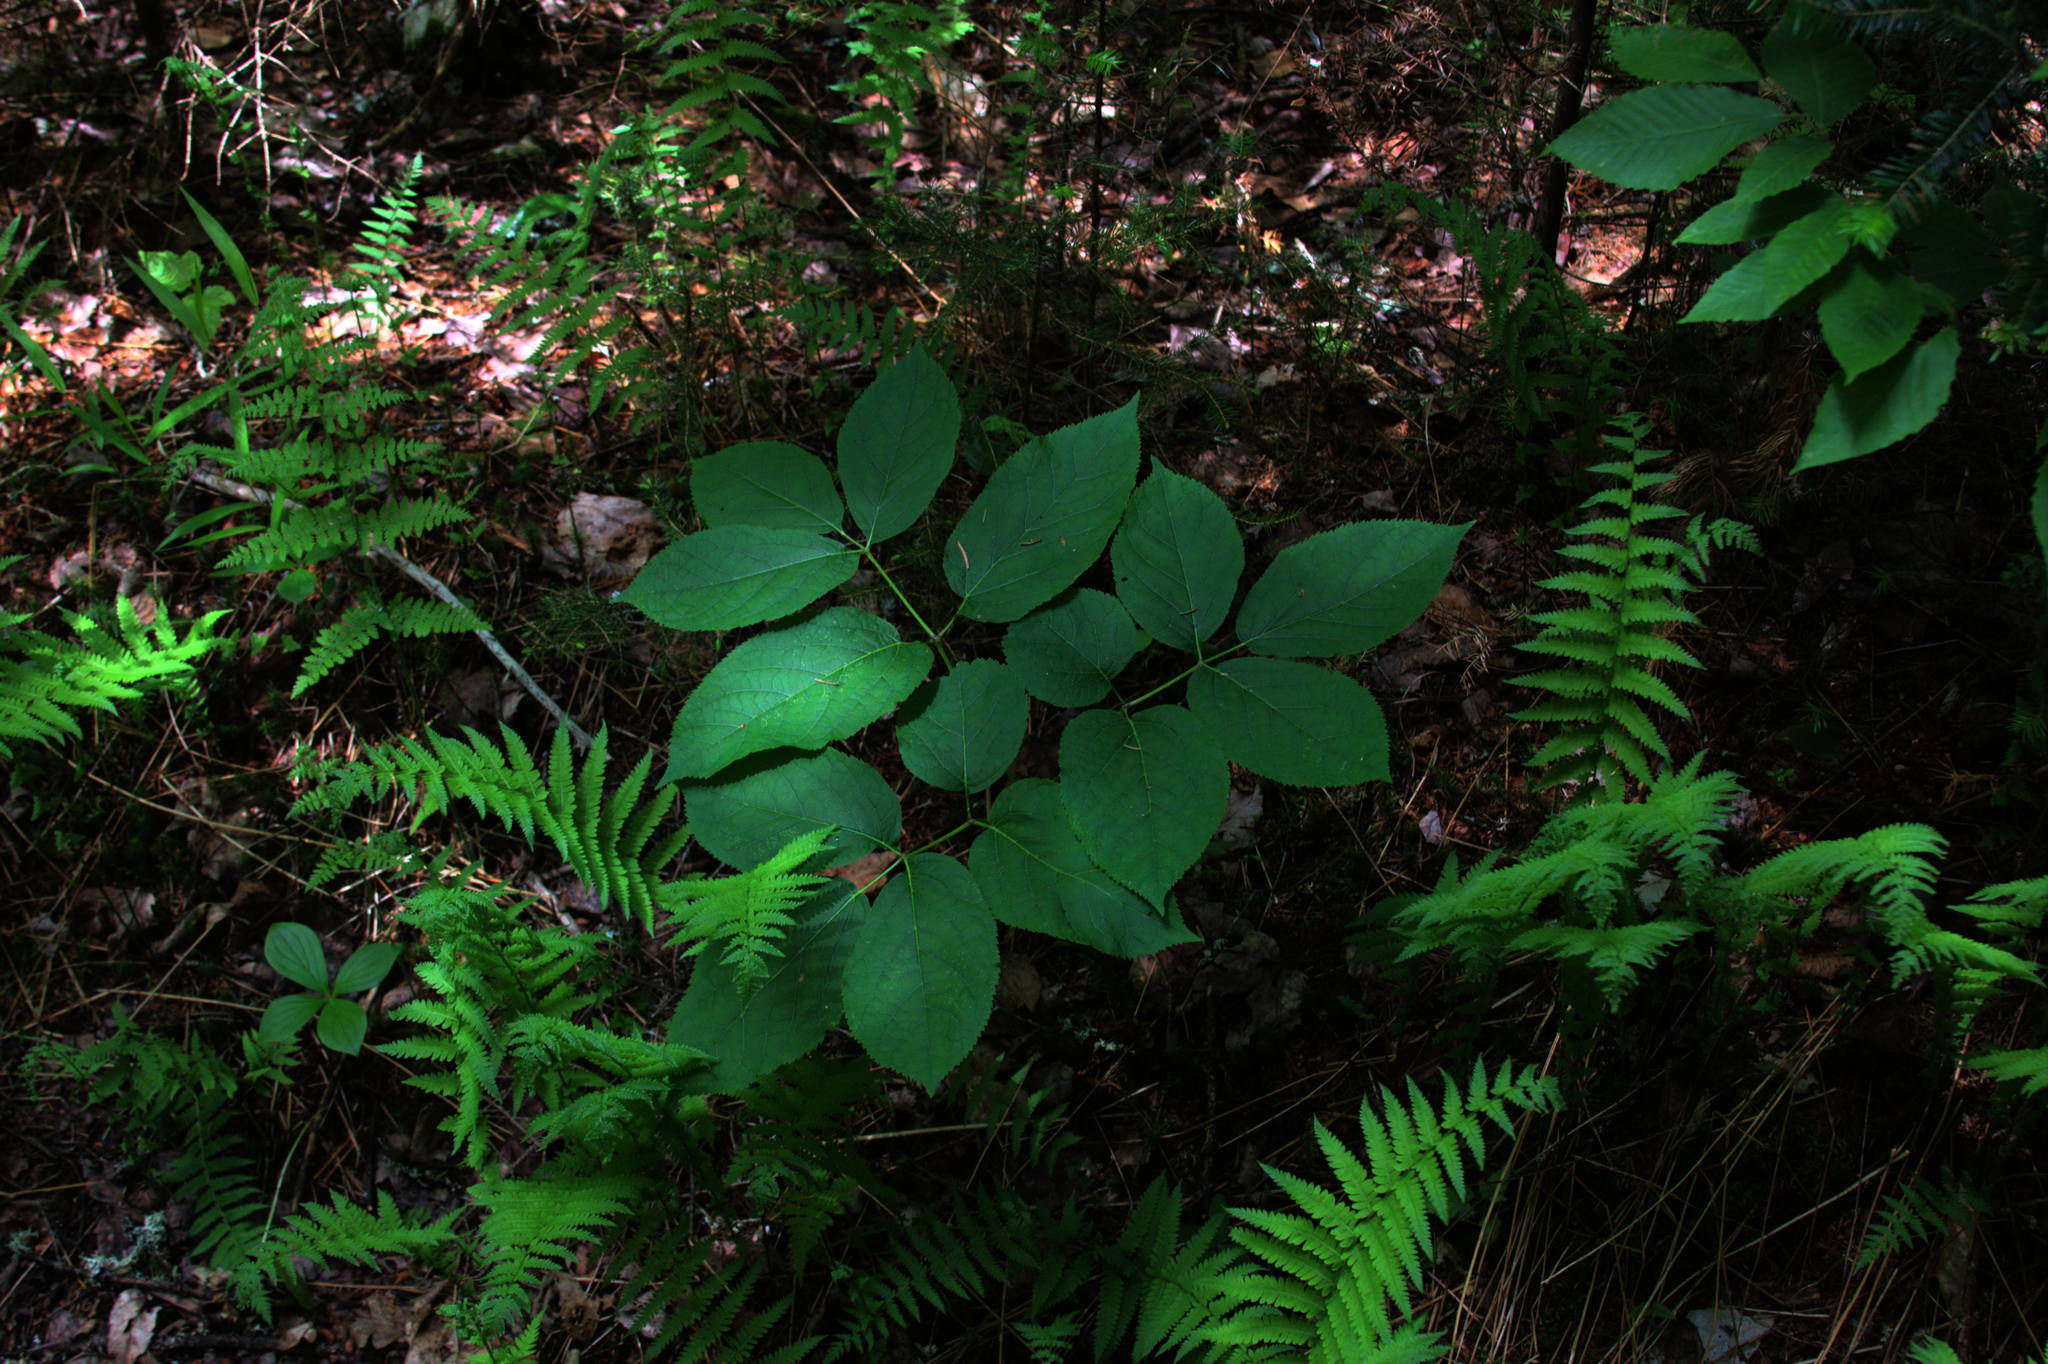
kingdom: Plantae
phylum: Tracheophyta
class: Magnoliopsida
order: Apiales
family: Araliaceae
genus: Aralia
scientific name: Aralia nudicaulis
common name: Wild sarsaparilla
